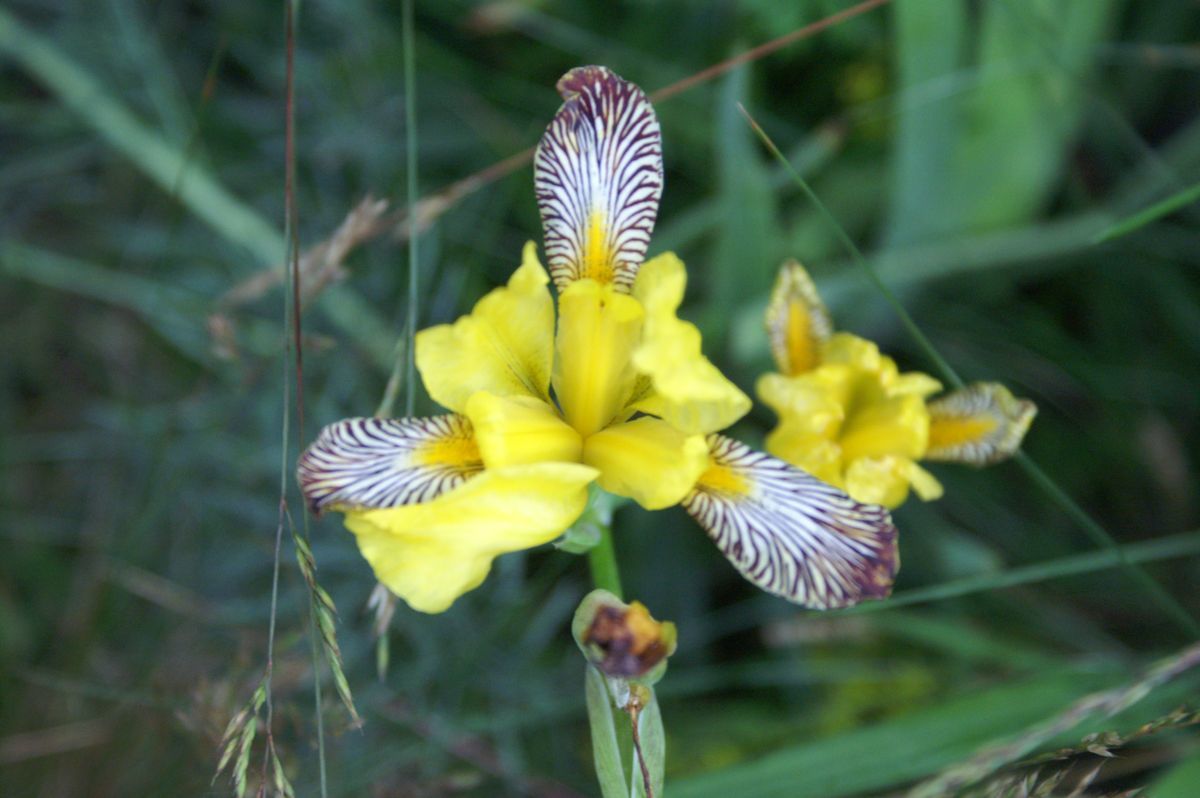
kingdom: Plantae
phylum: Tracheophyta
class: Liliopsida
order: Asparagales
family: Iridaceae
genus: Iris
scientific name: Iris variegata
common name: Hungarian iris
